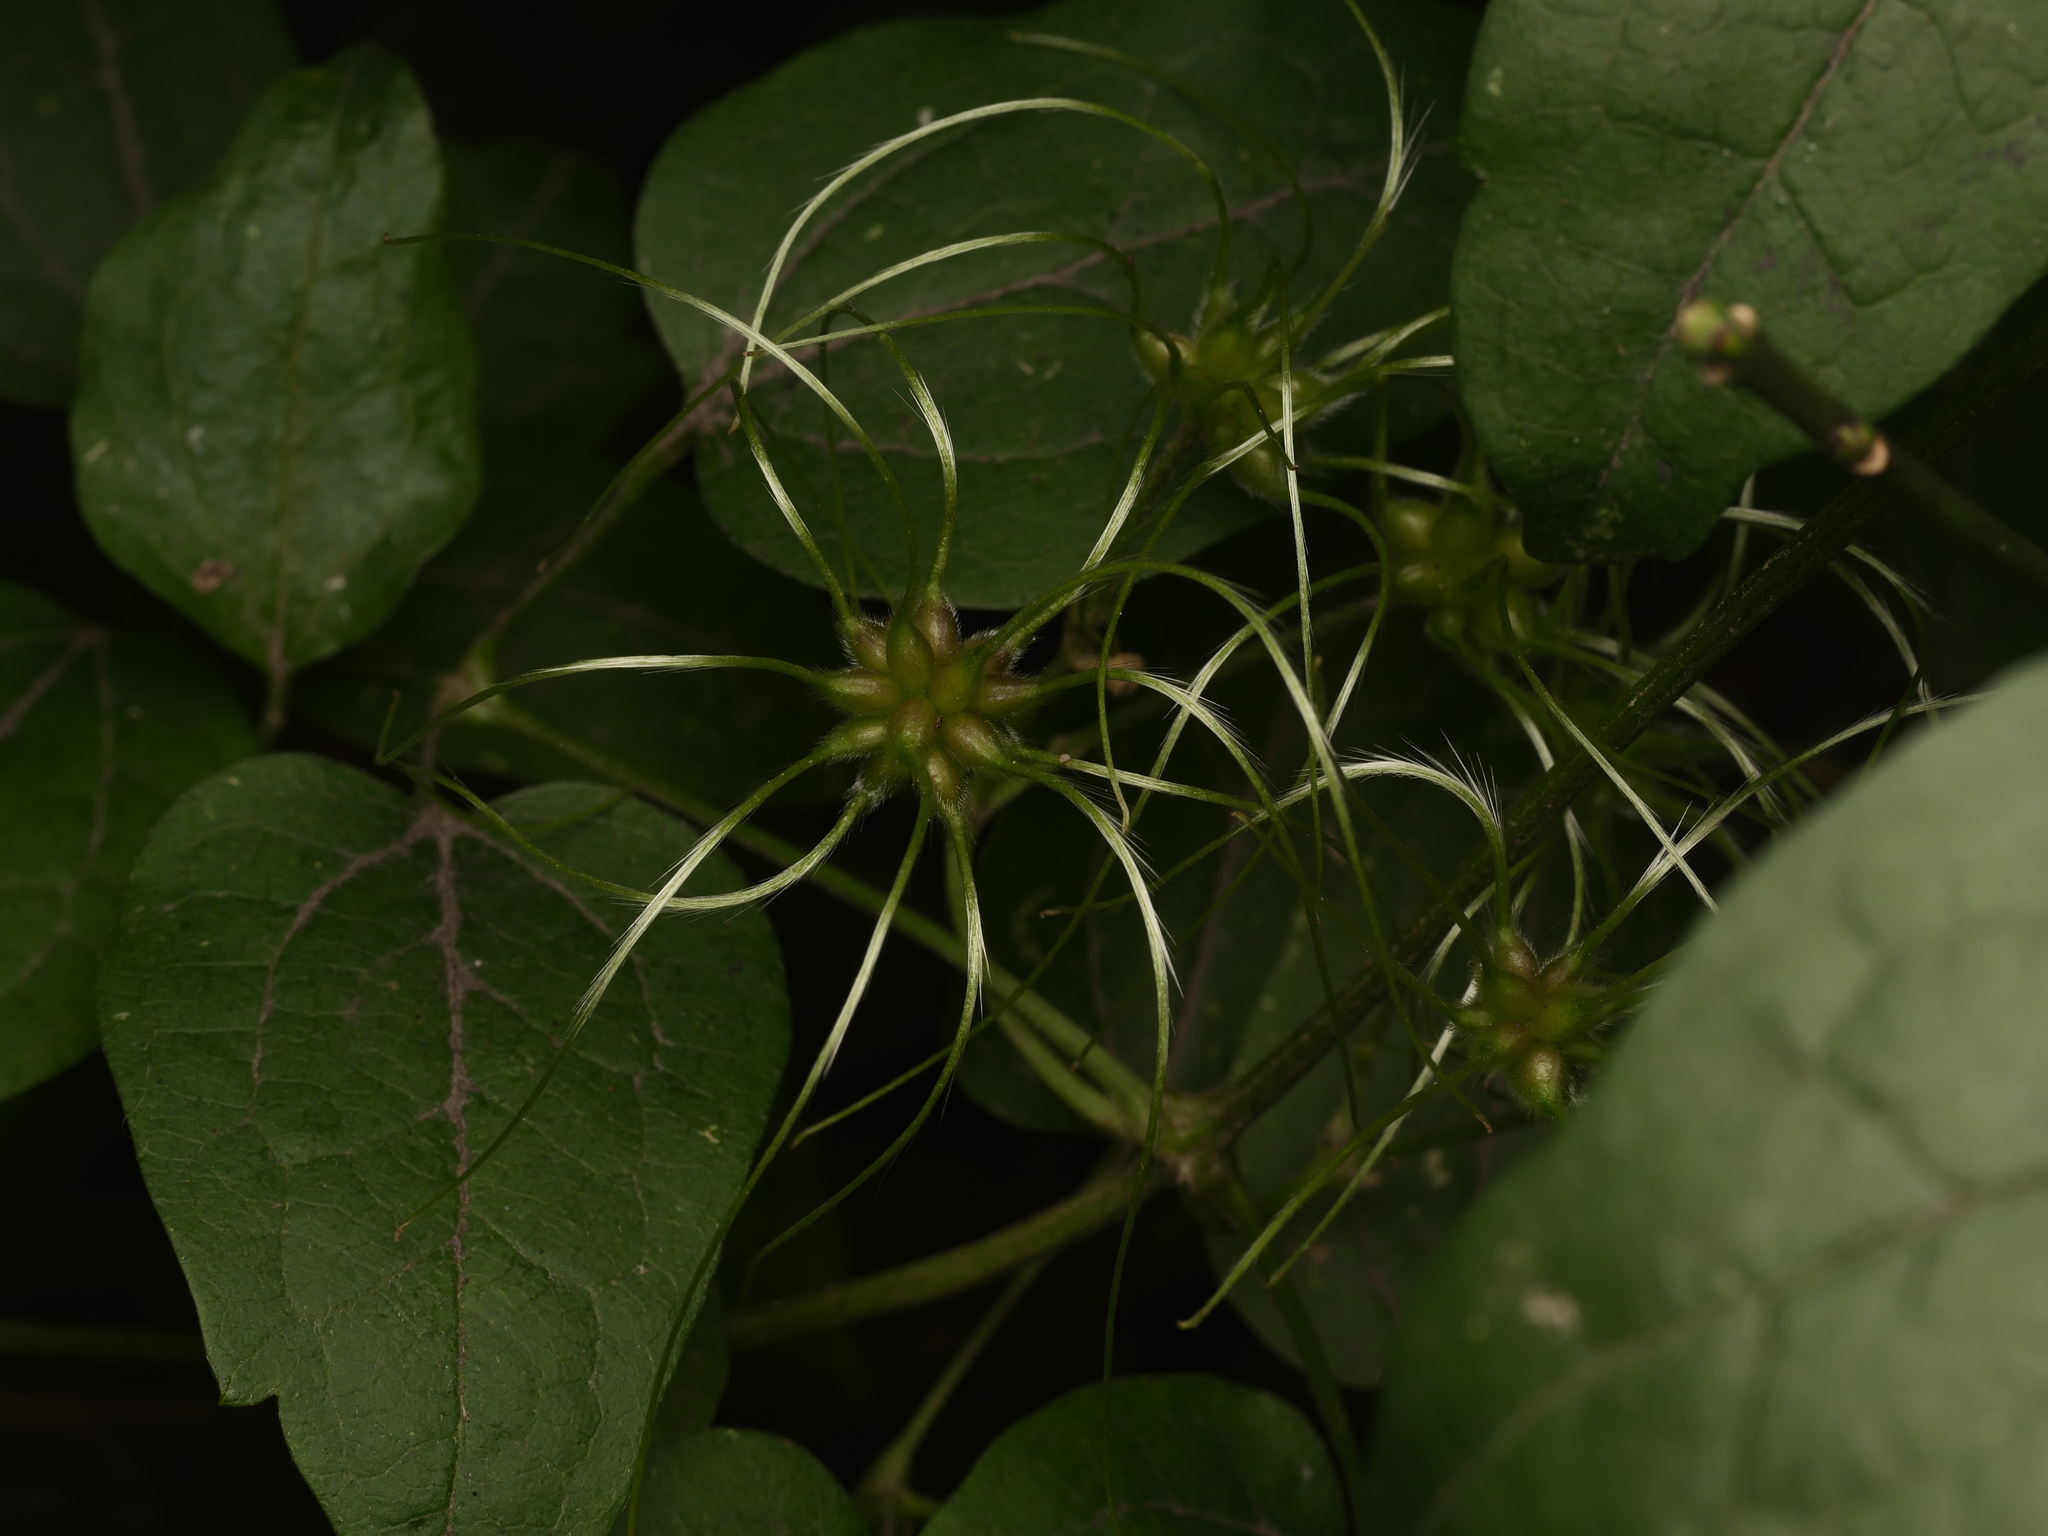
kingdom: Plantae
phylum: Tracheophyta
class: Magnoliopsida
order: Ranunculales
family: Ranunculaceae
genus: Clematis
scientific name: Clematis vitalba
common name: Evergreen clematis
